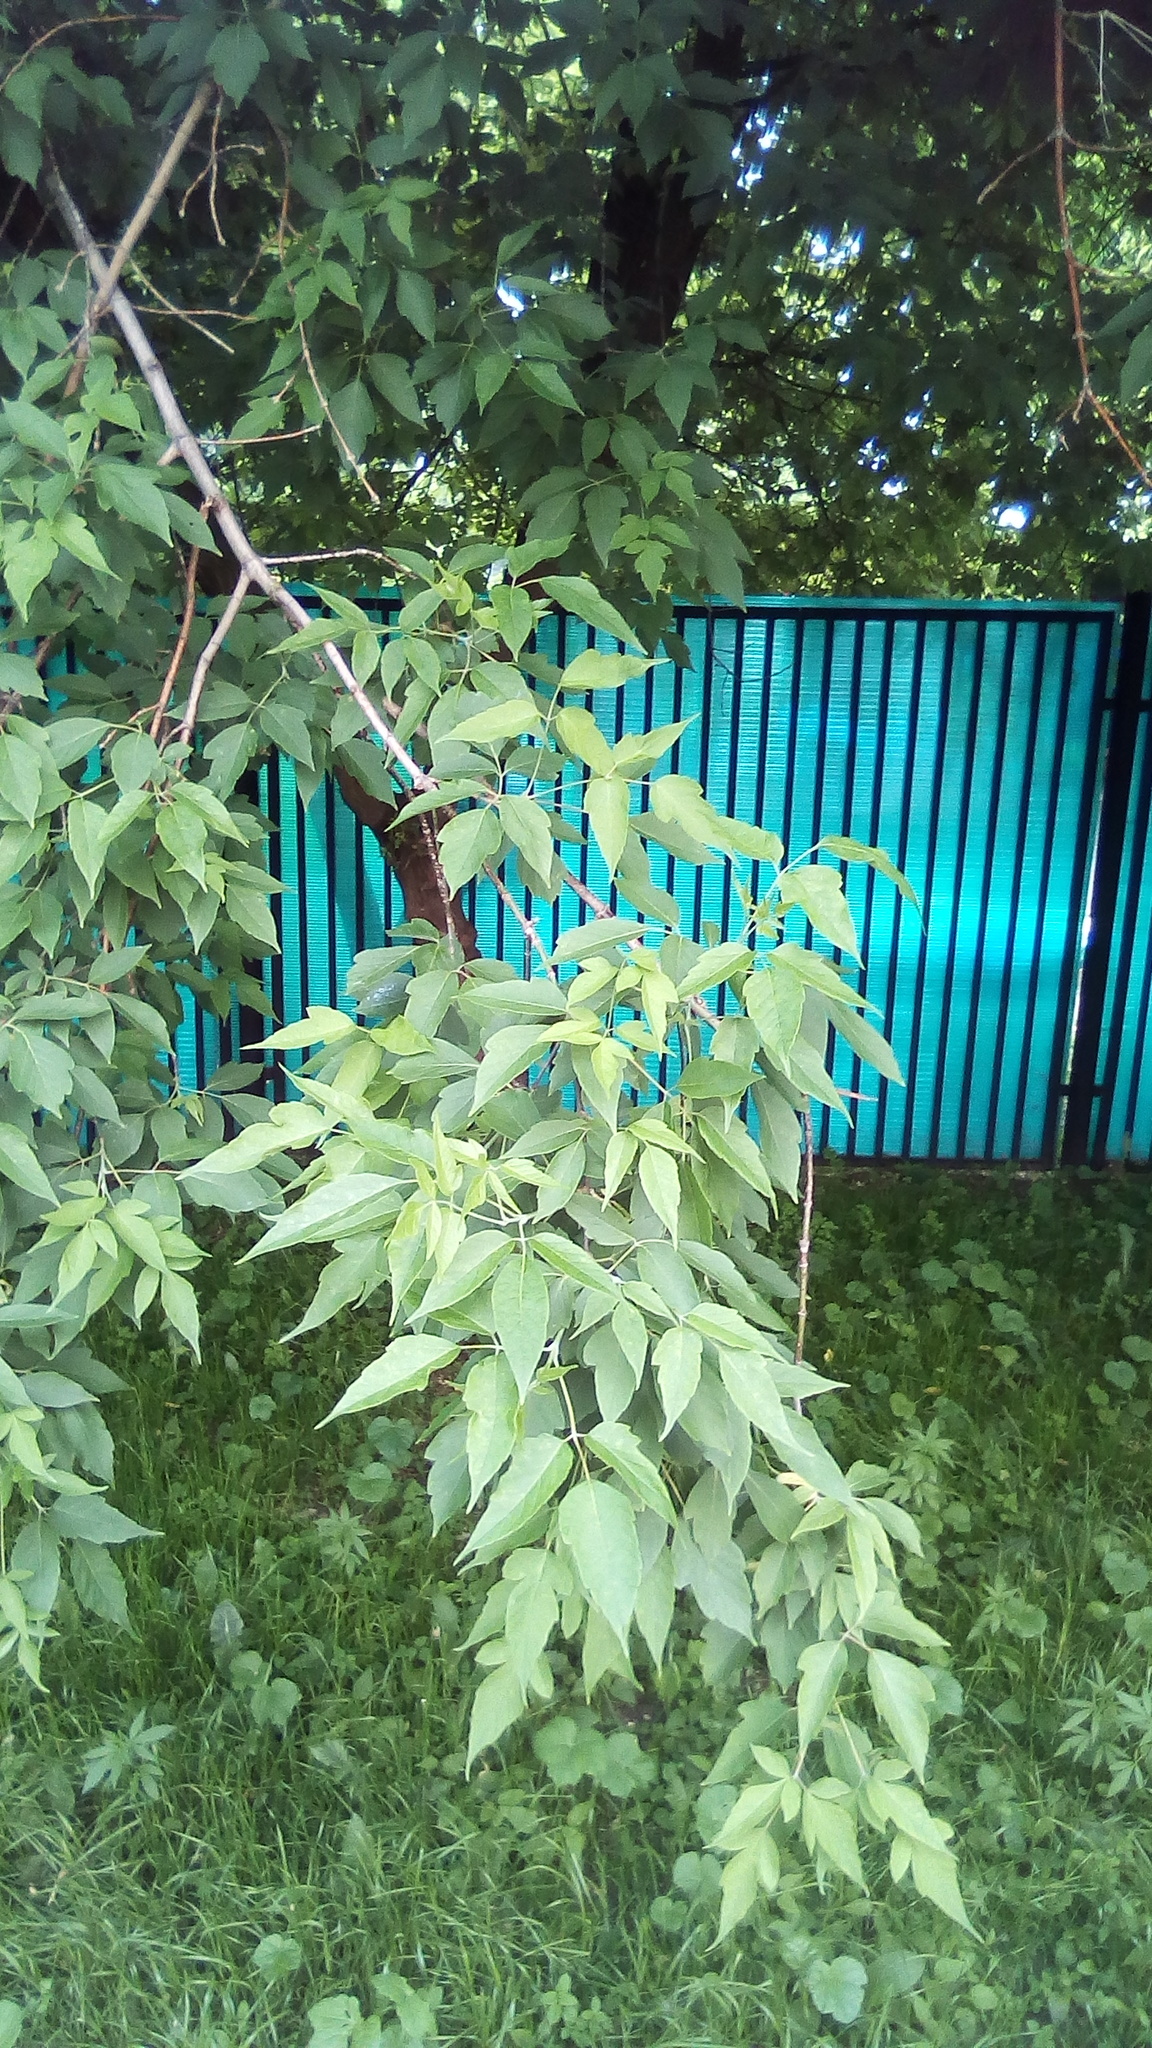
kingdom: Plantae
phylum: Tracheophyta
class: Magnoliopsida
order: Sapindales
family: Sapindaceae
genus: Acer
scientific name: Acer negundo
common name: Ashleaf maple
